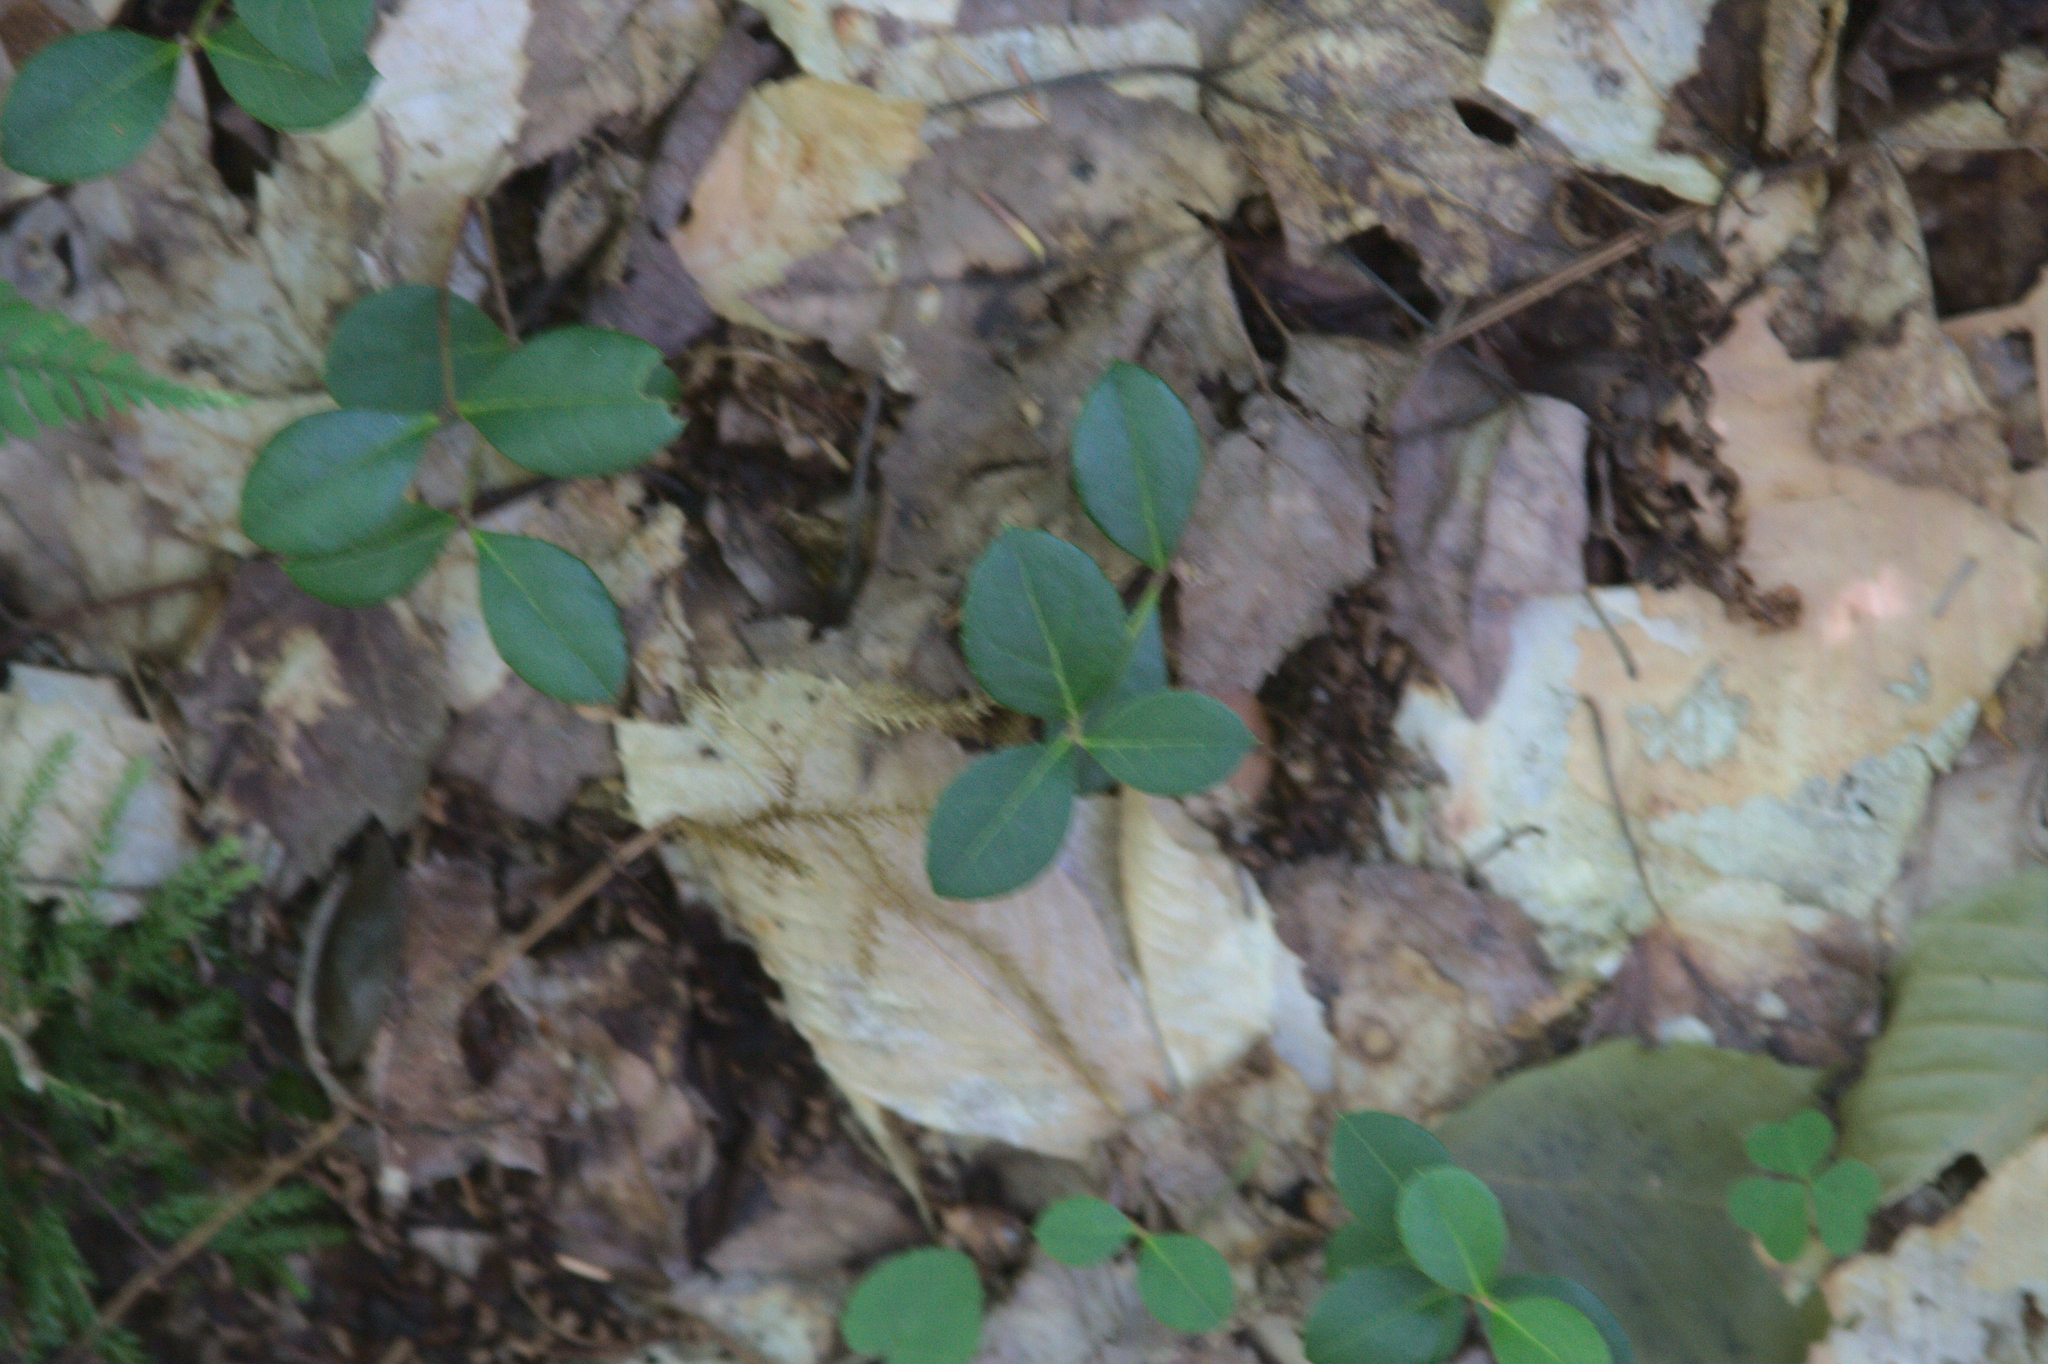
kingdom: Plantae
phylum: Tracheophyta
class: Magnoliopsida
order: Ericales
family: Ericaceae
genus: Gaultheria
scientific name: Gaultheria procumbens
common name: Checkerberry
